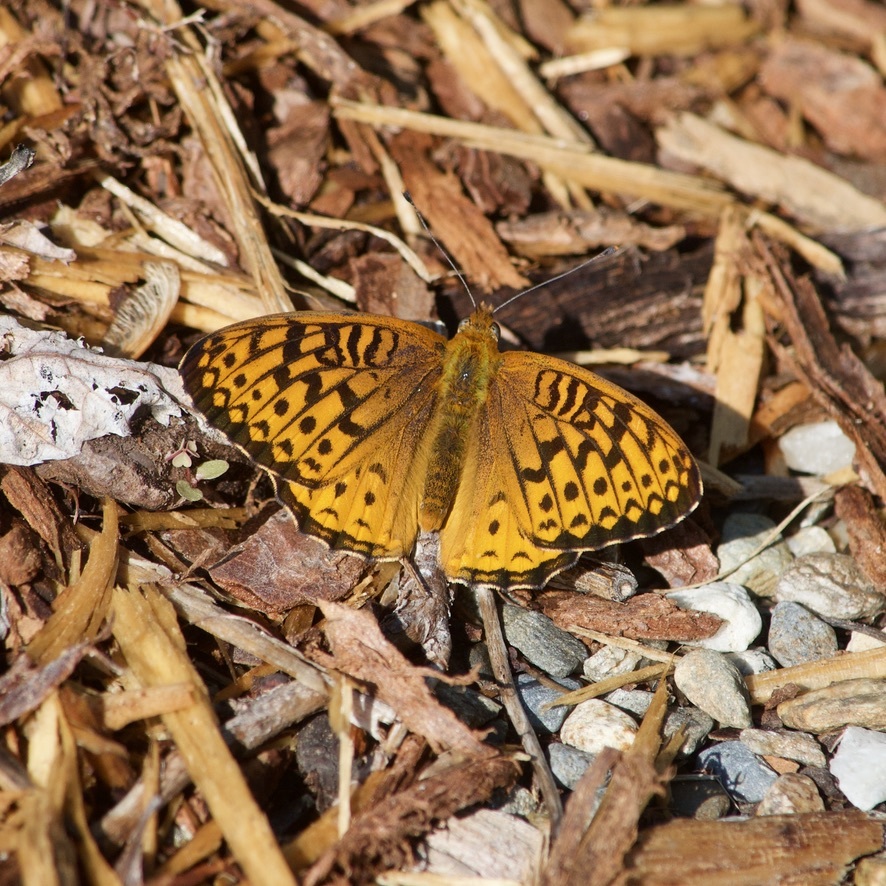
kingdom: Animalia
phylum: Arthropoda
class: Insecta
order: Lepidoptera
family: Nymphalidae
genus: Speyeria
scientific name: Speyeria atlantis
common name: Atlantis fritillary
